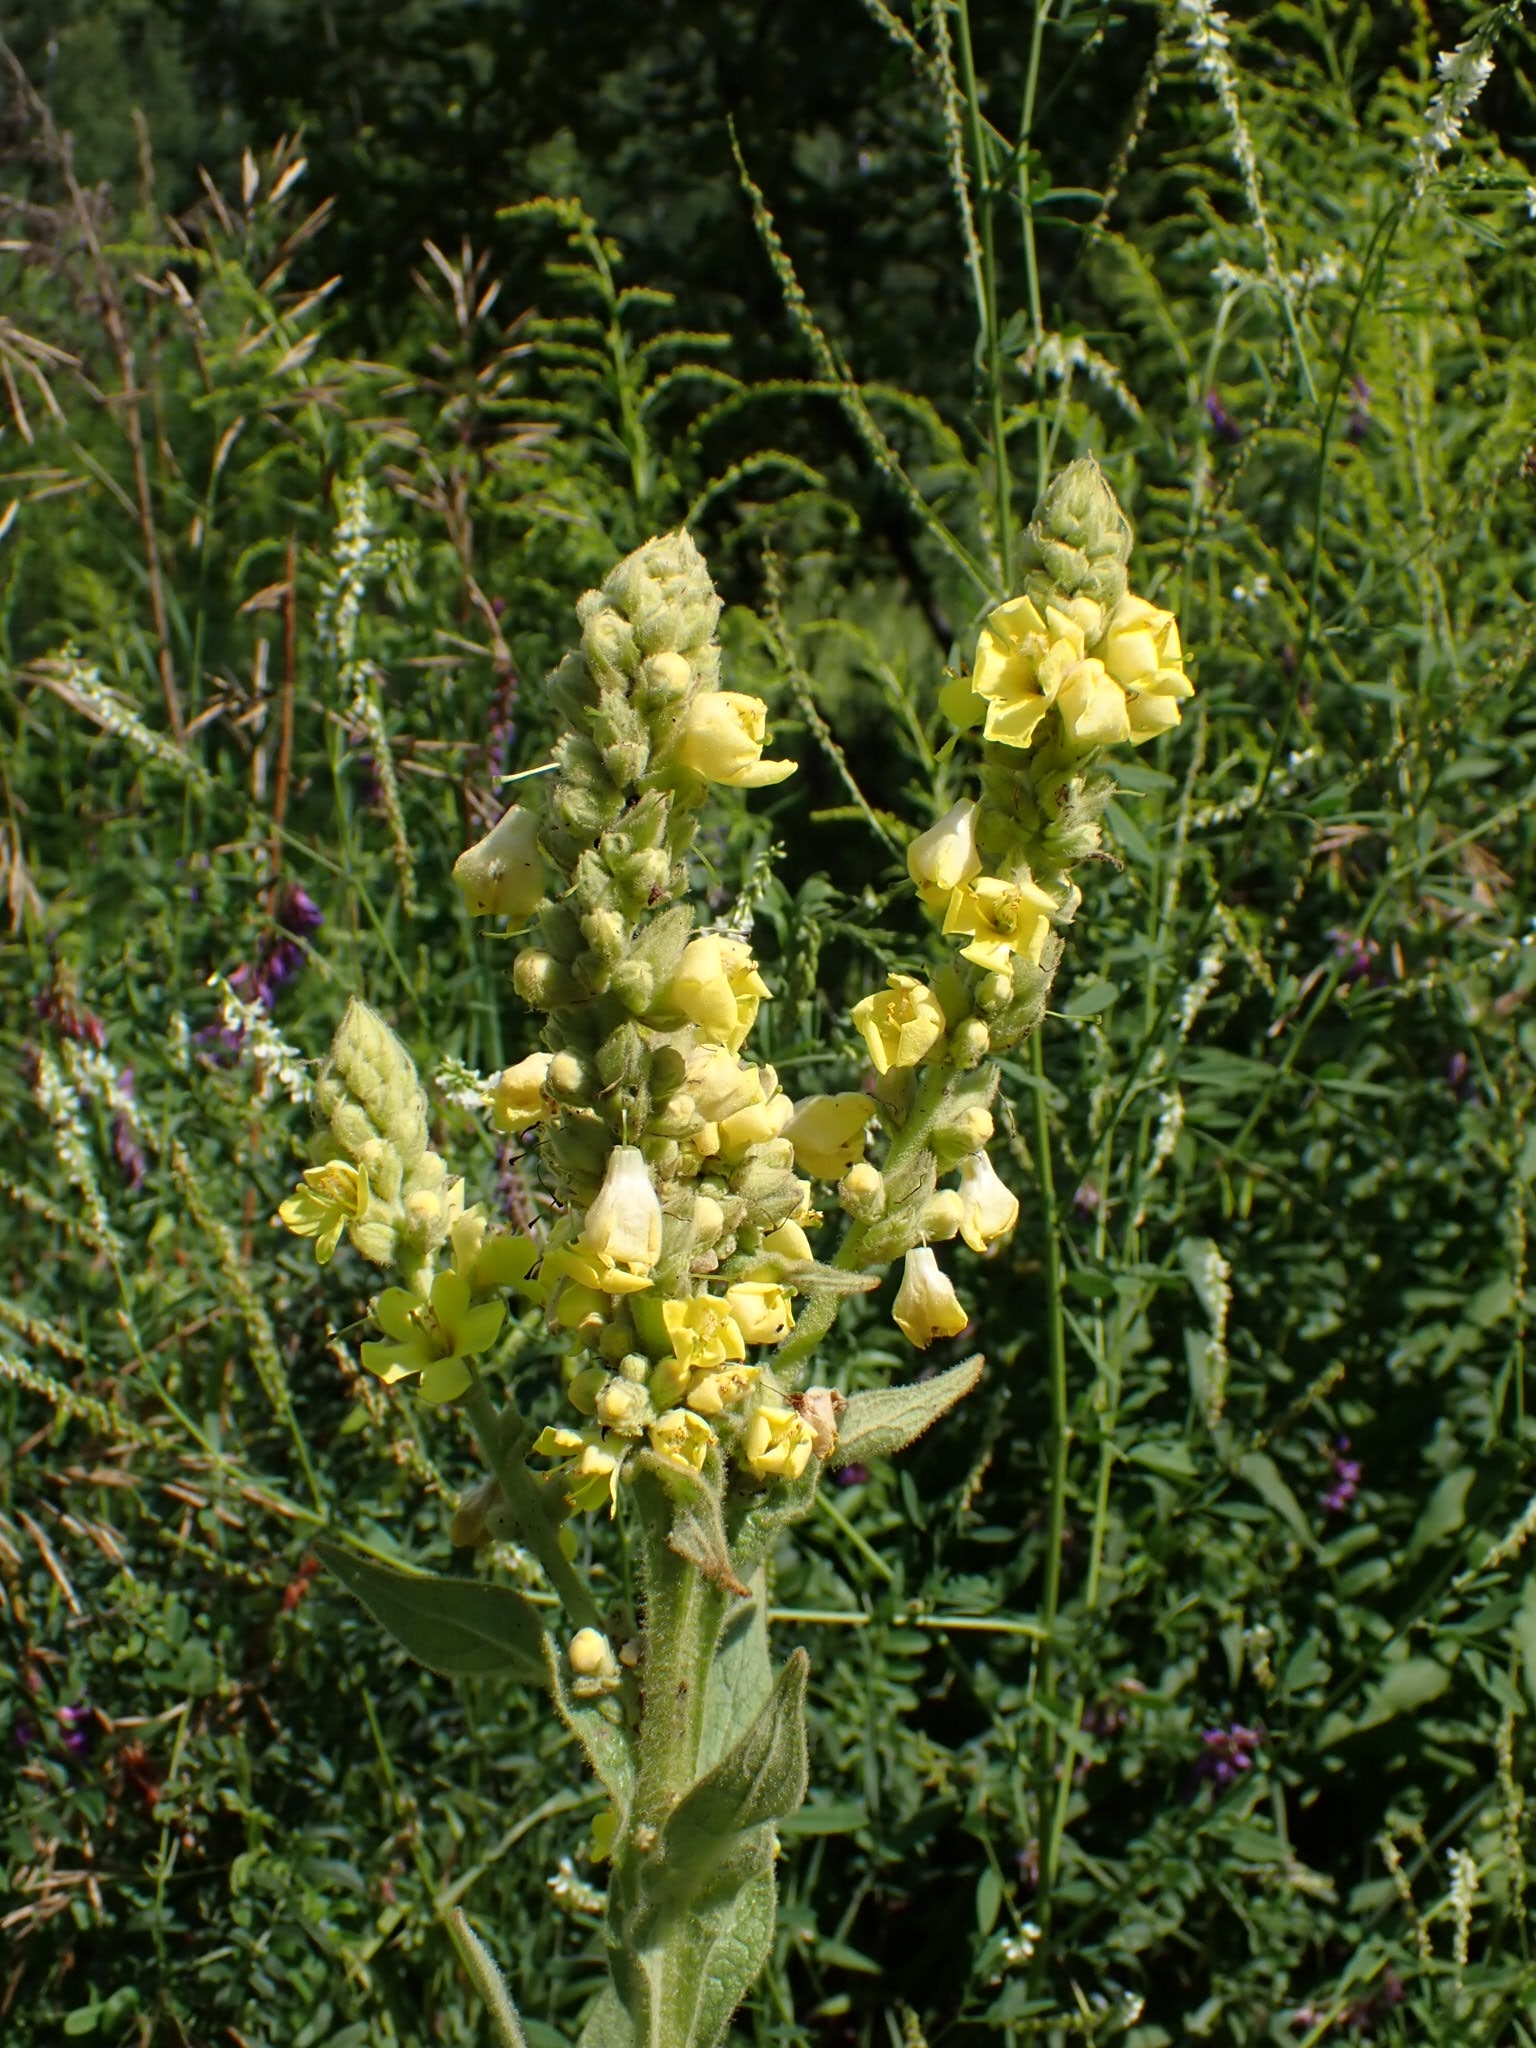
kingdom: Plantae
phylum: Tracheophyta
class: Magnoliopsida
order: Lamiales
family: Scrophulariaceae
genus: Verbascum
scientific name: Verbascum thapsus
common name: Common mullein
